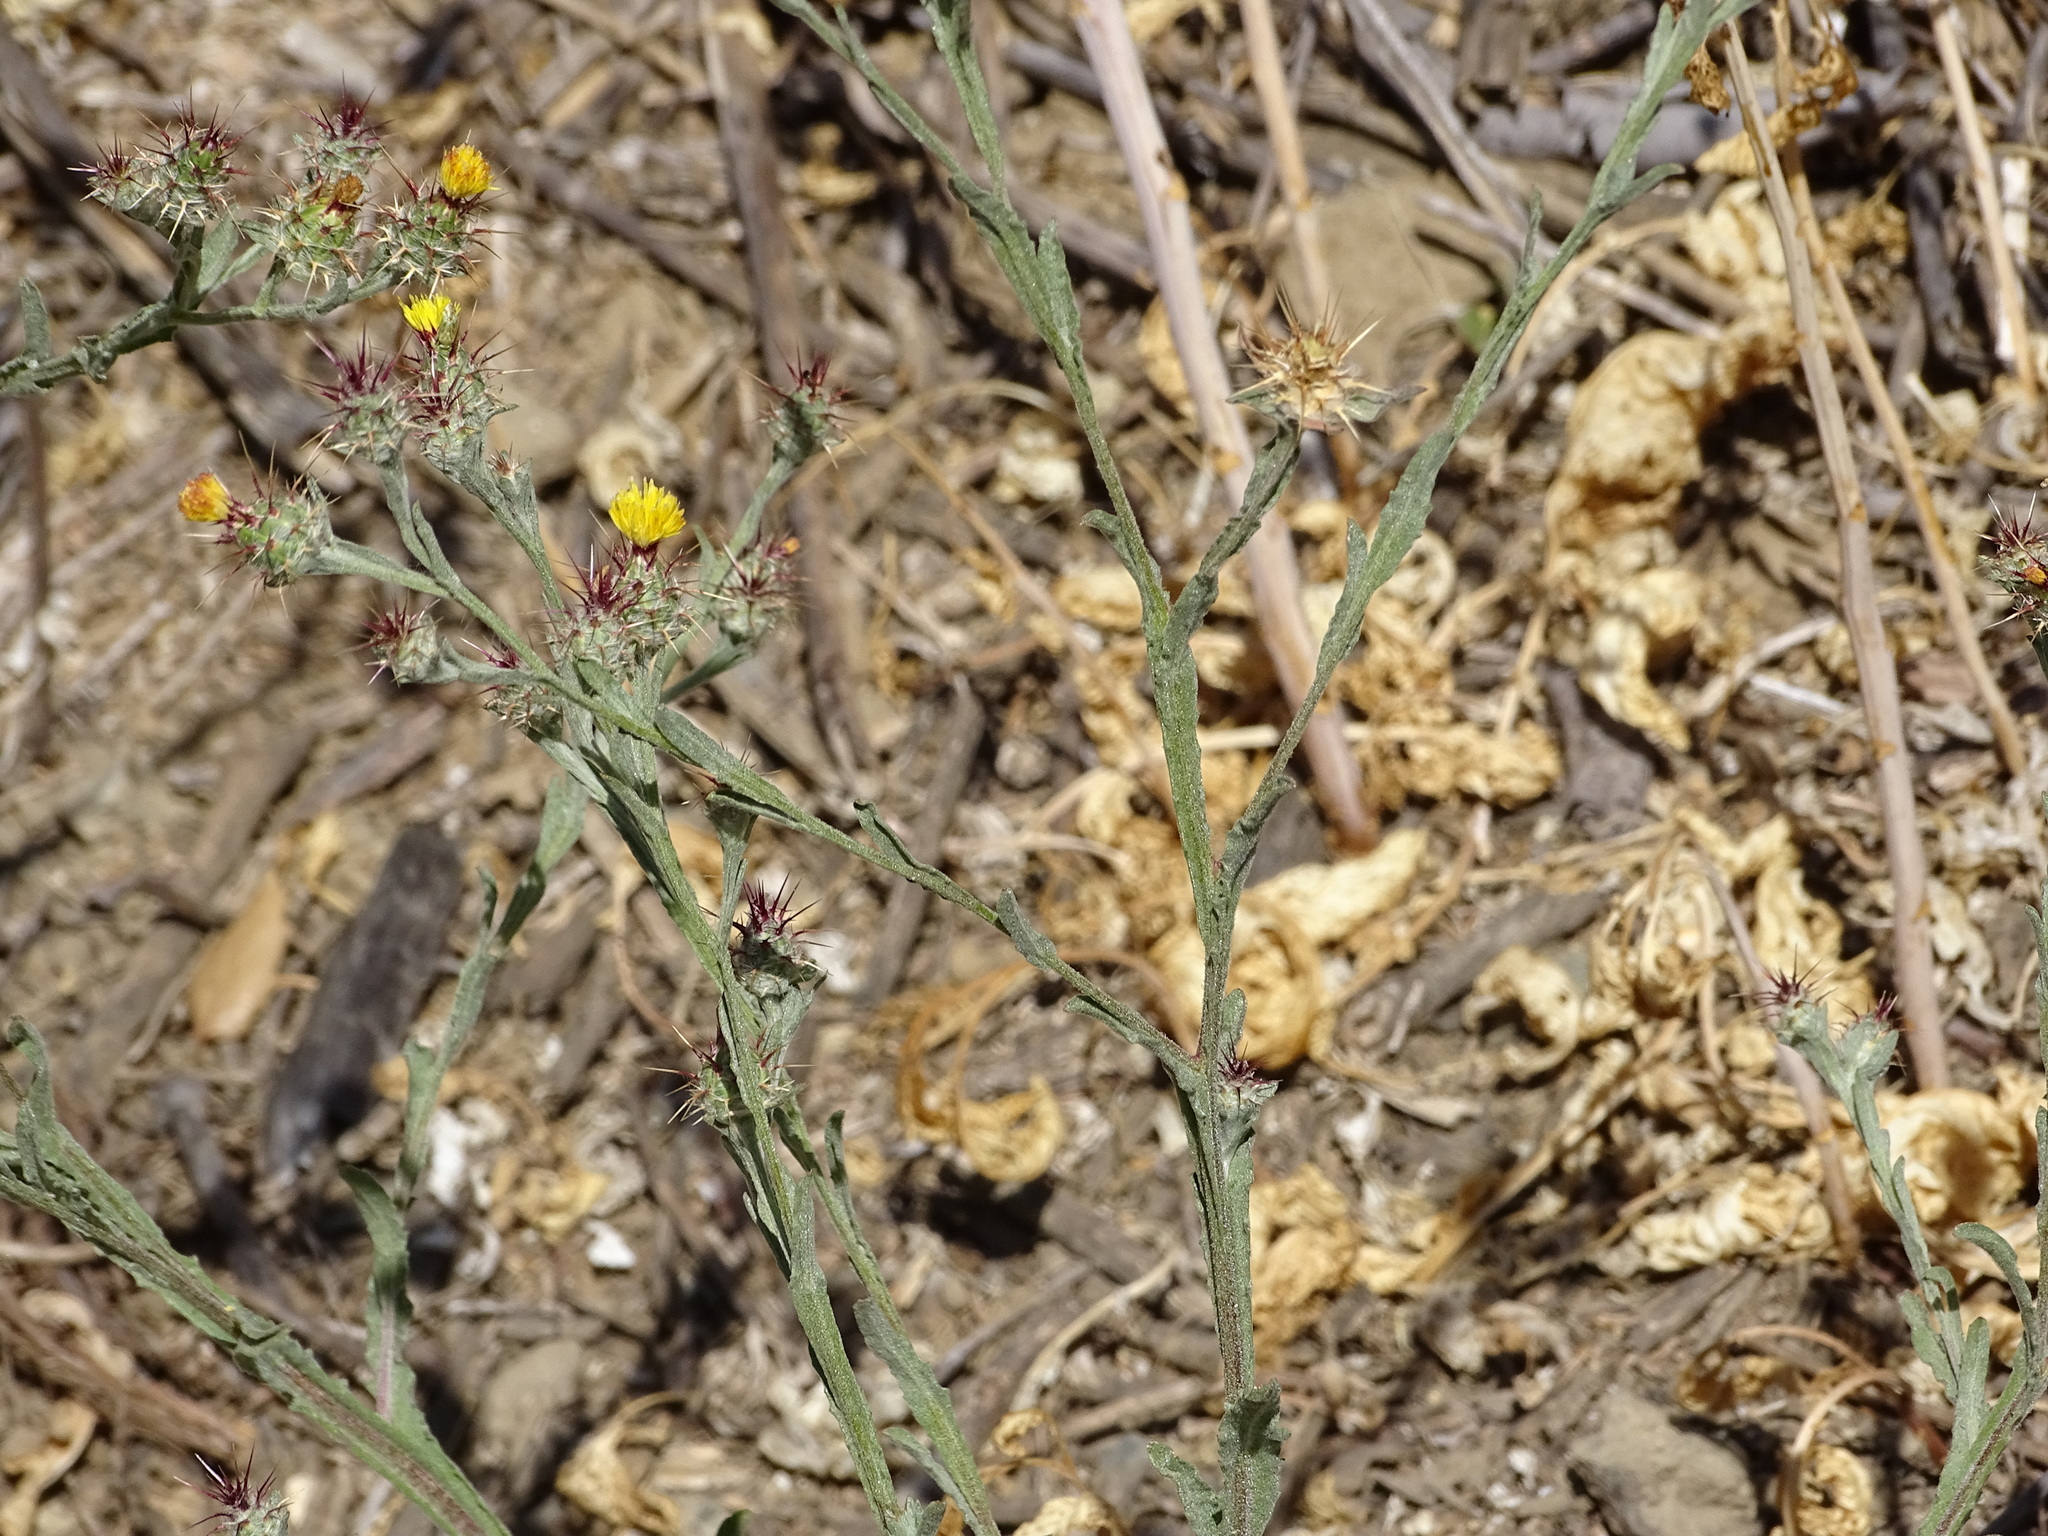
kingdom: Plantae
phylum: Tracheophyta
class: Magnoliopsida
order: Asterales
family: Asteraceae
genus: Centaurea
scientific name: Centaurea melitensis
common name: Maltese star-thistle
